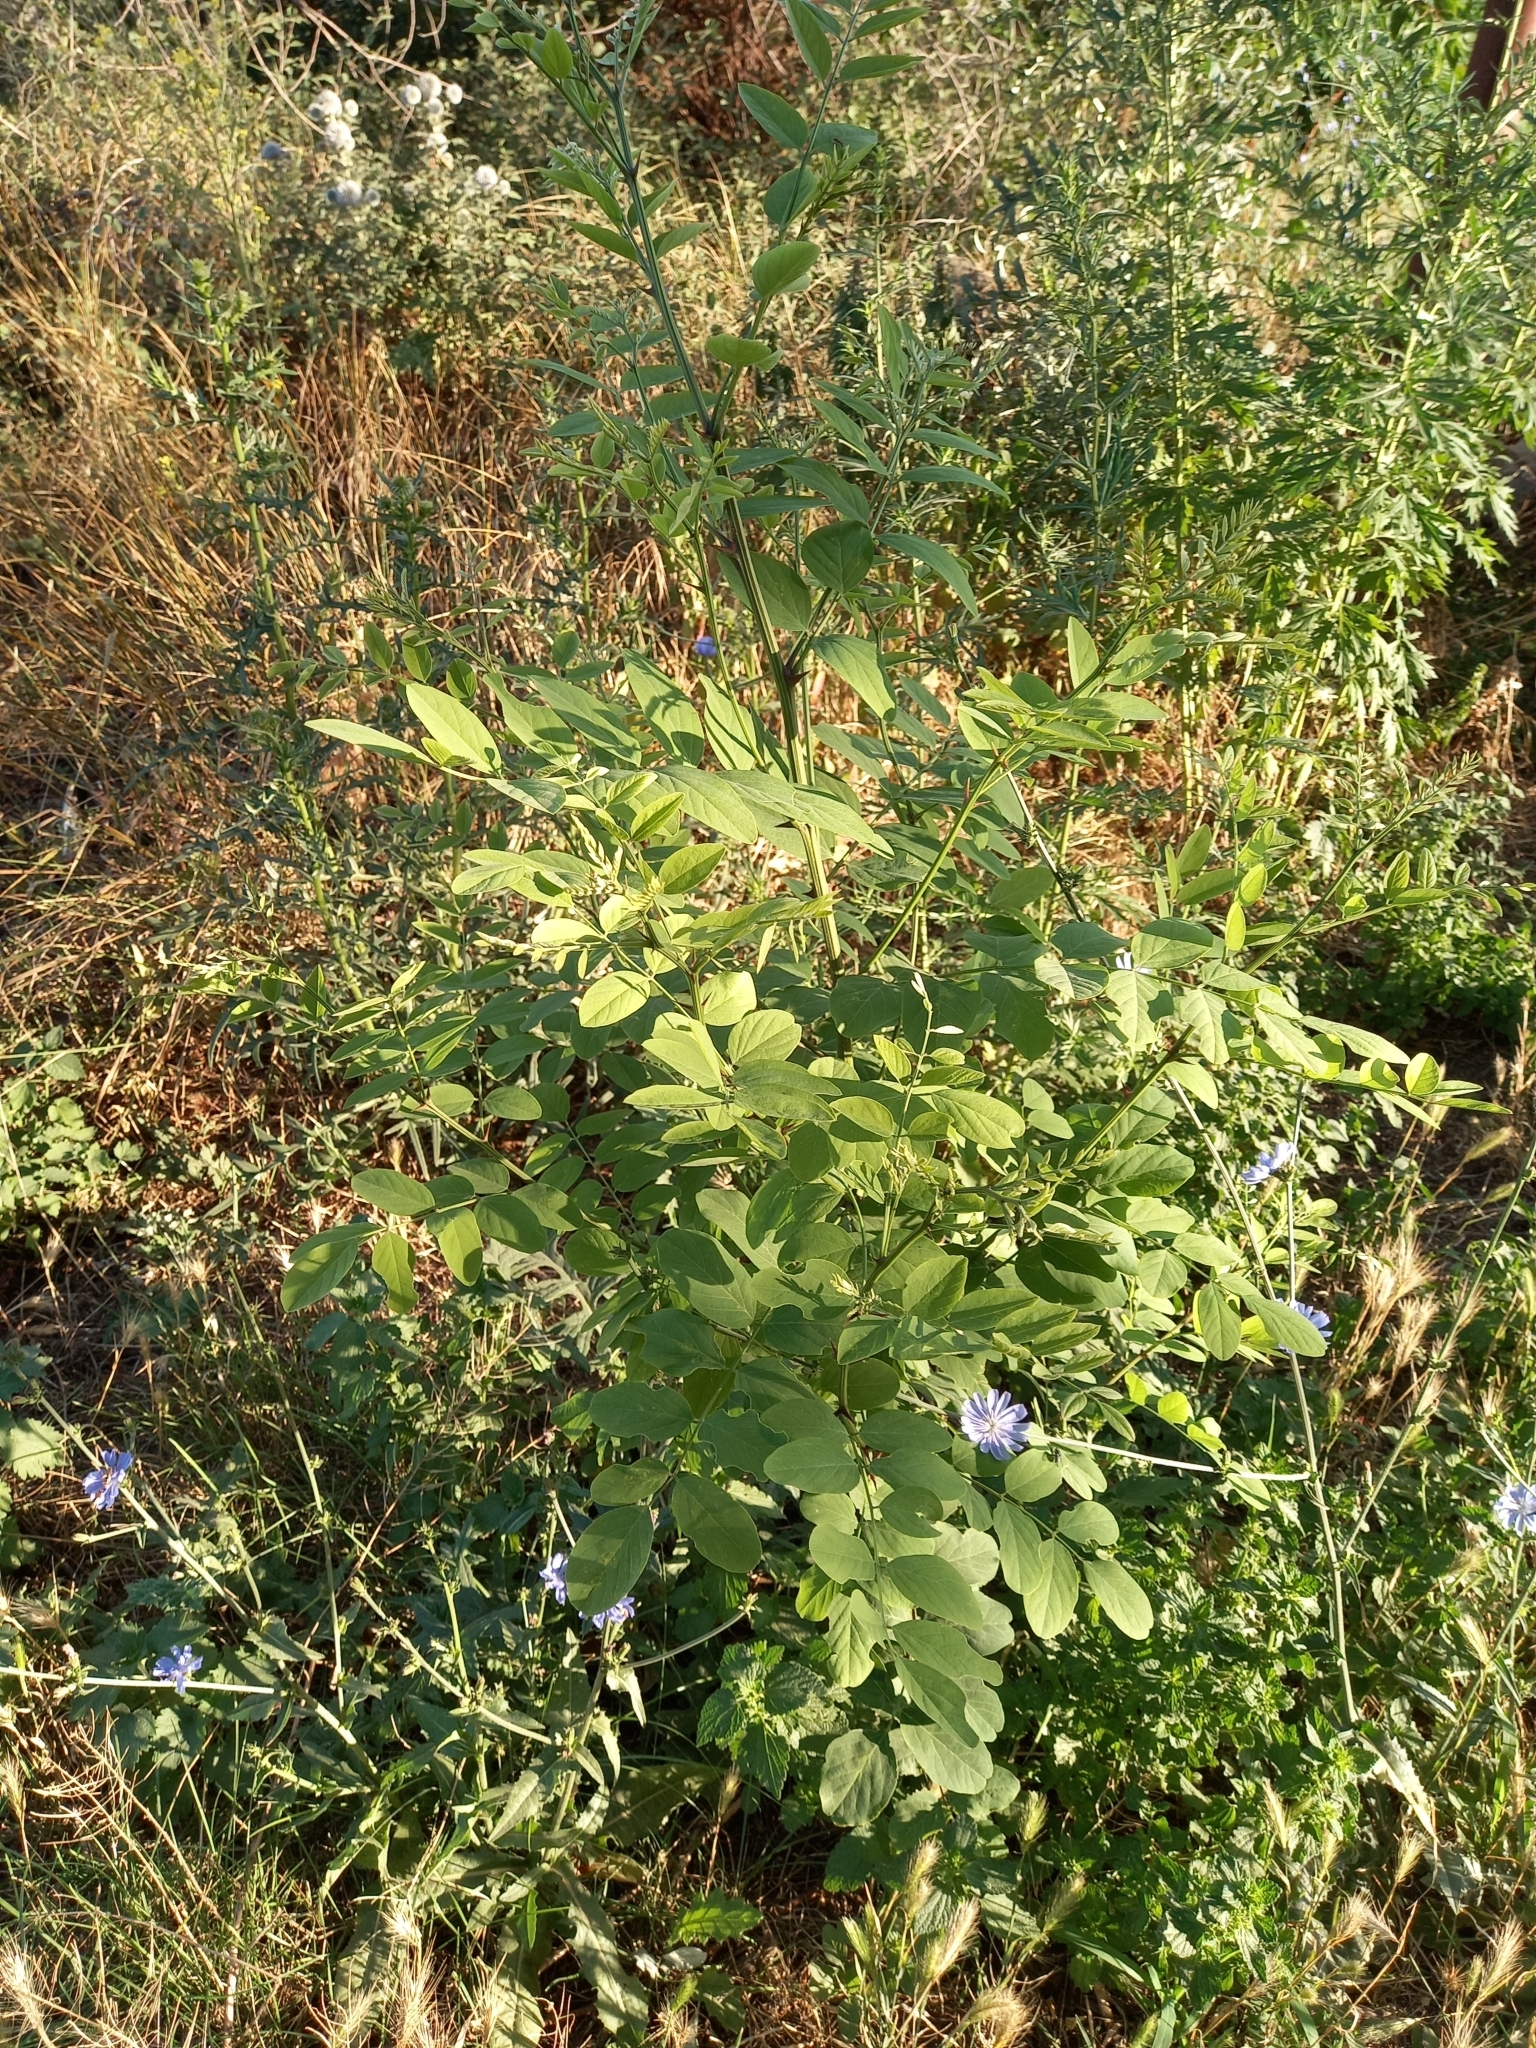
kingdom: Plantae
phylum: Tracheophyta
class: Magnoliopsida
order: Fabales
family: Fabaceae
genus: Robinia
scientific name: Robinia pseudoacacia
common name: Black locust
